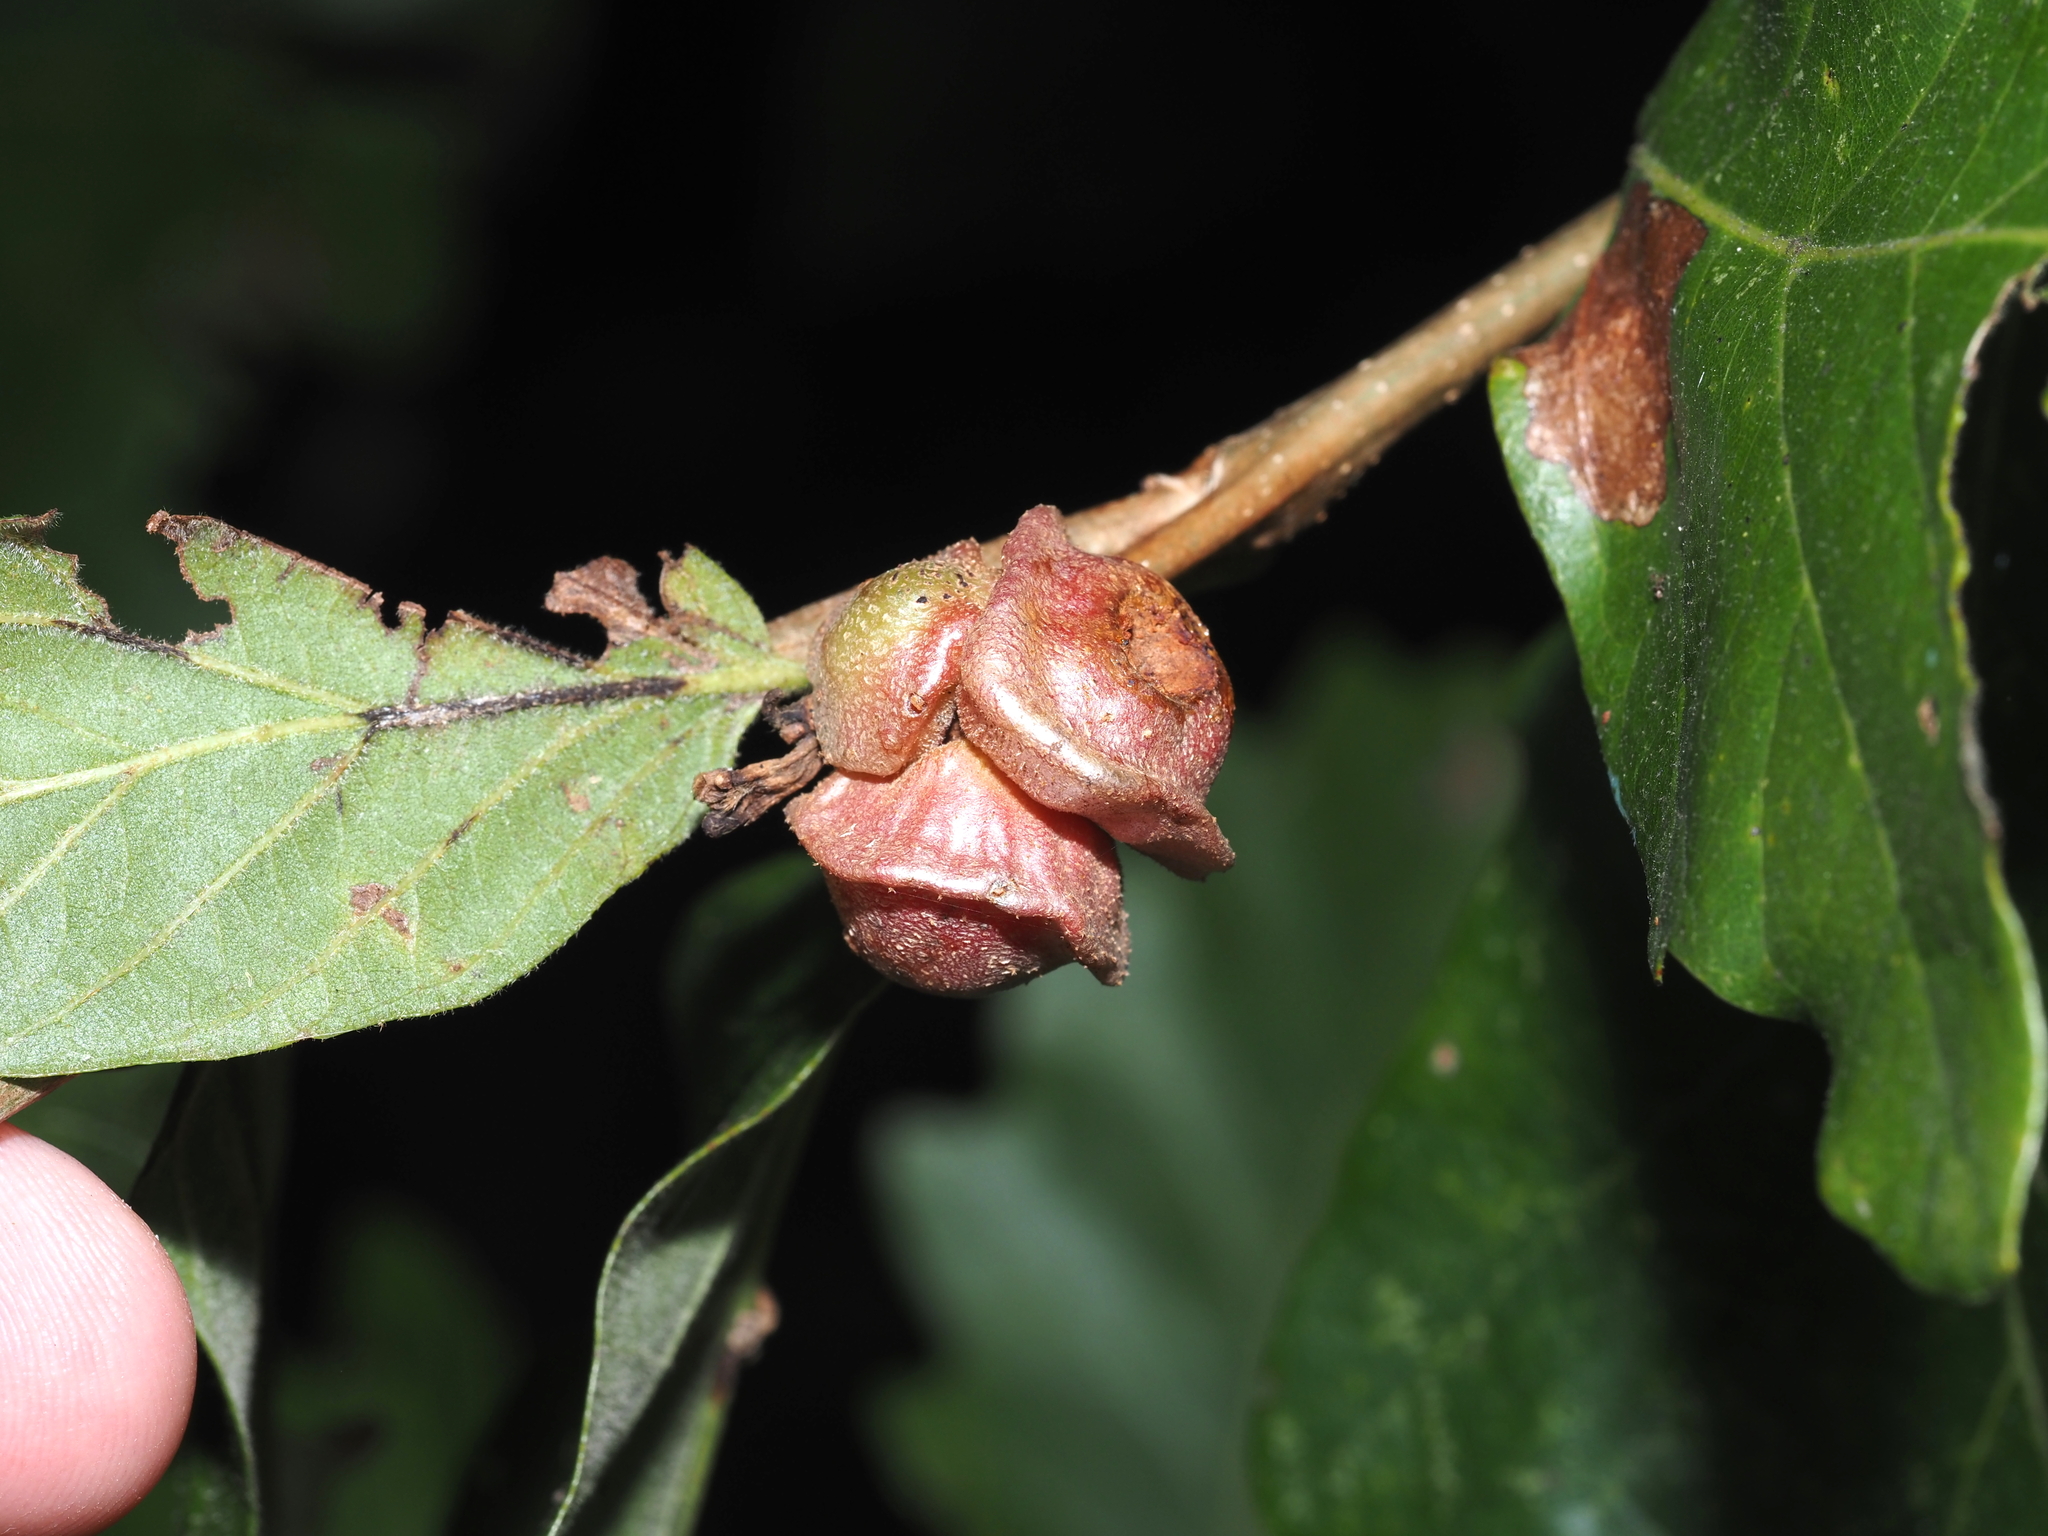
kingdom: Animalia
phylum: Arthropoda
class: Insecta
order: Hymenoptera
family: Cynipidae
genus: Andricus
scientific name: Andricus
